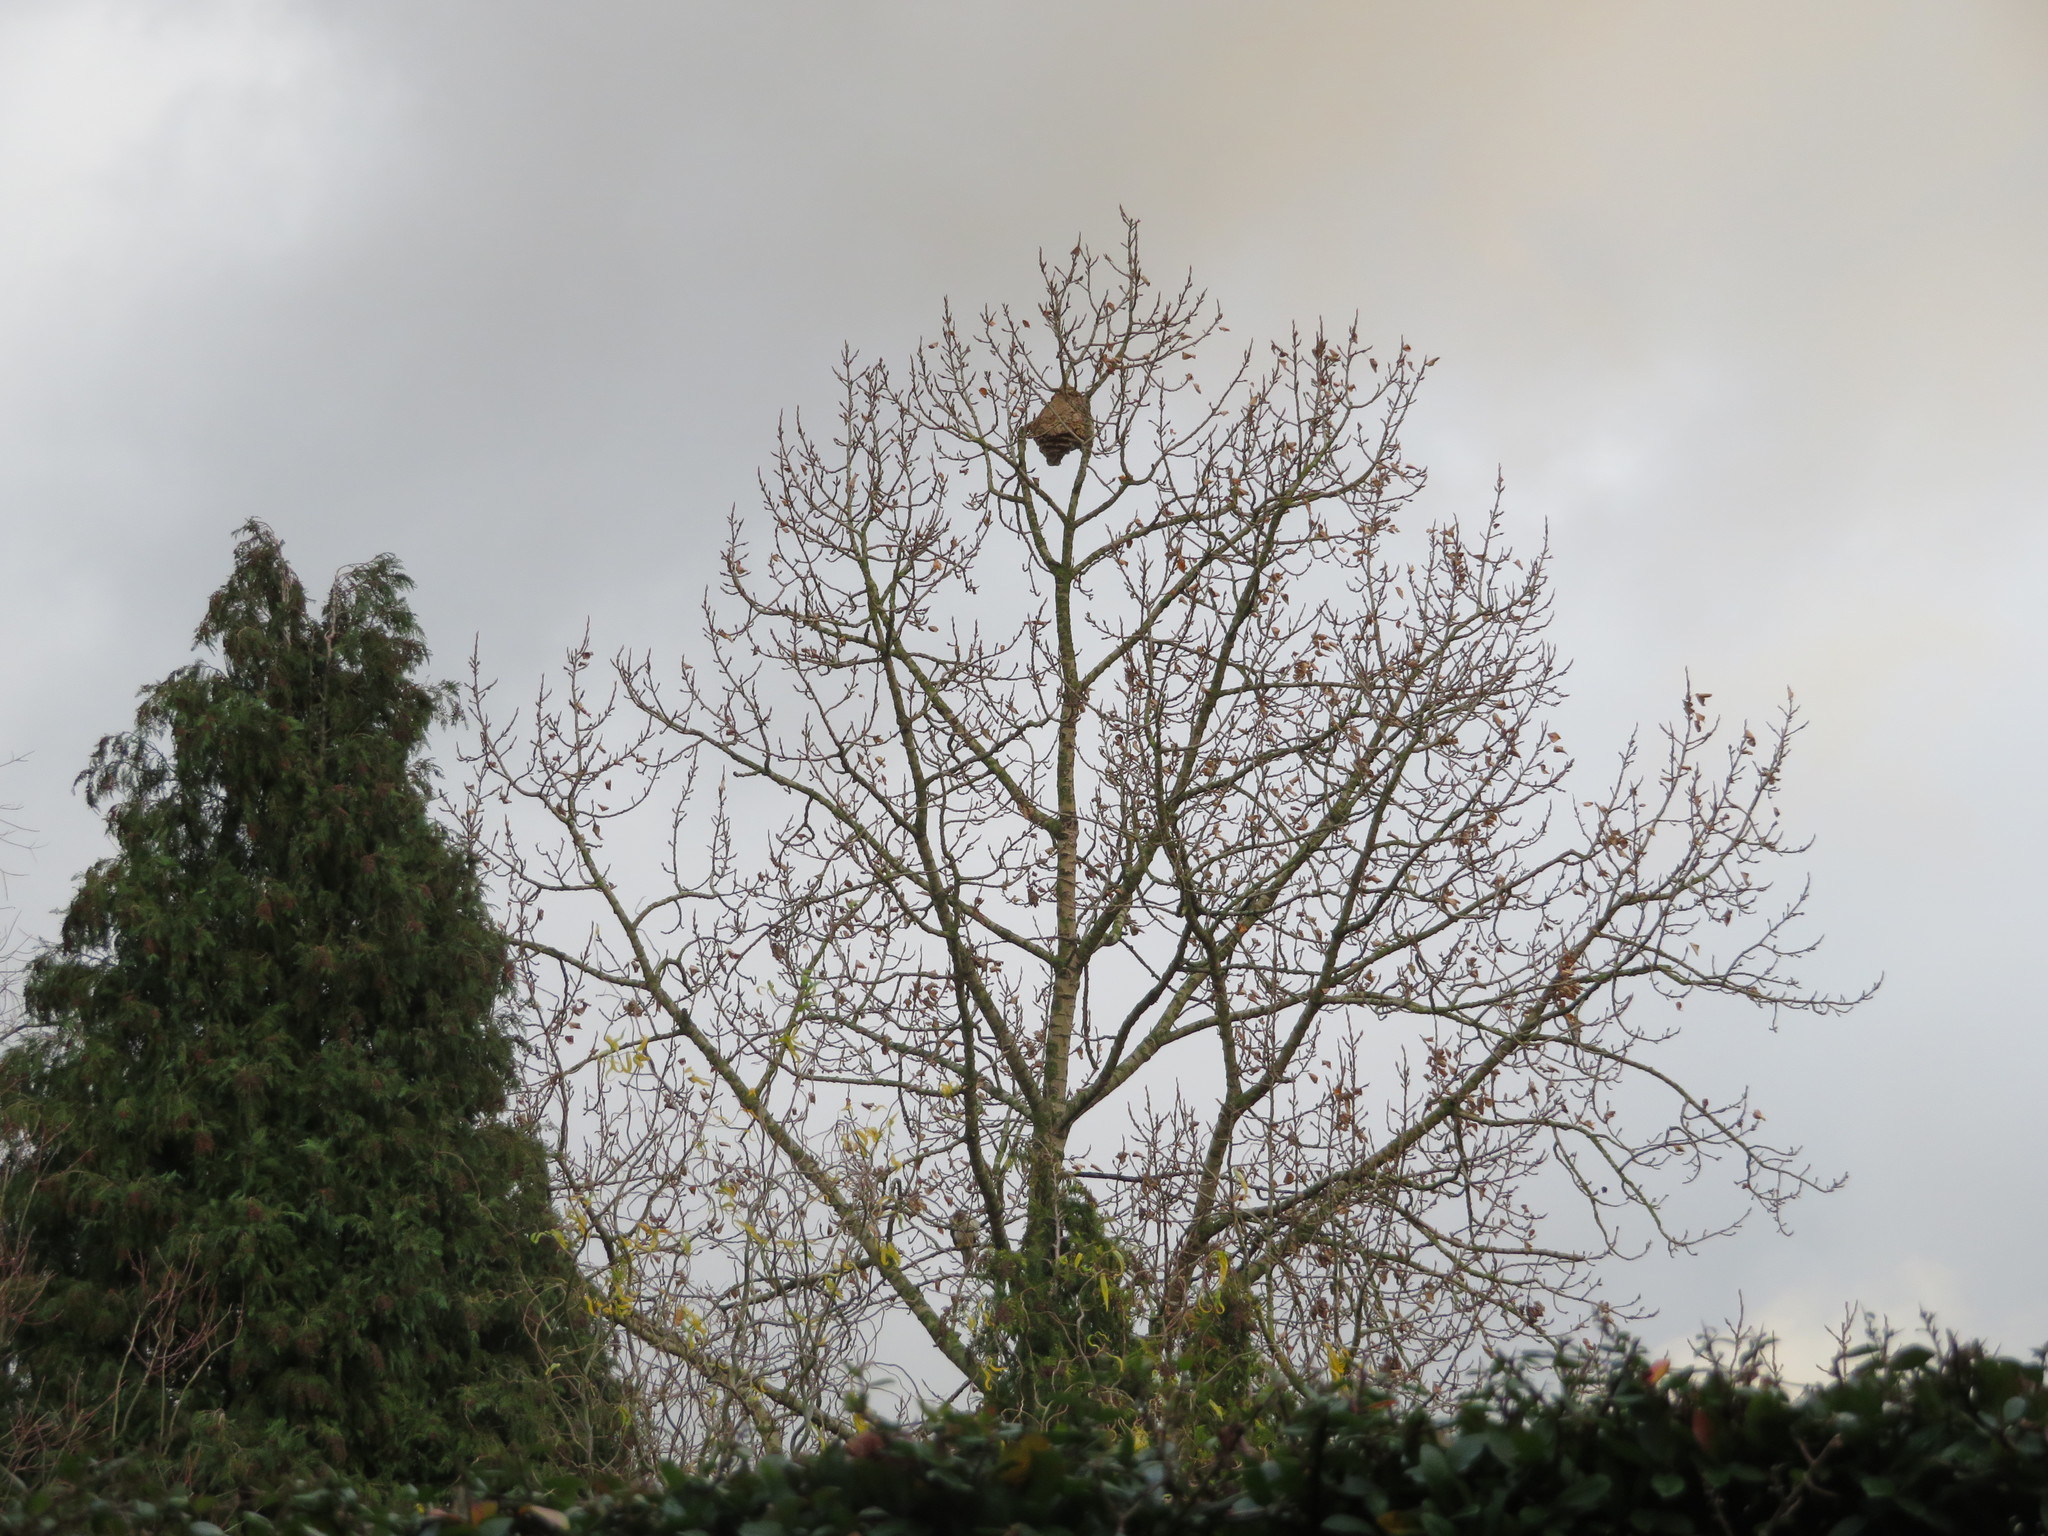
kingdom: Animalia
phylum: Arthropoda
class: Insecta
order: Hymenoptera
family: Vespidae
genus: Vespa
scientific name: Vespa velutina
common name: Asian hornet
